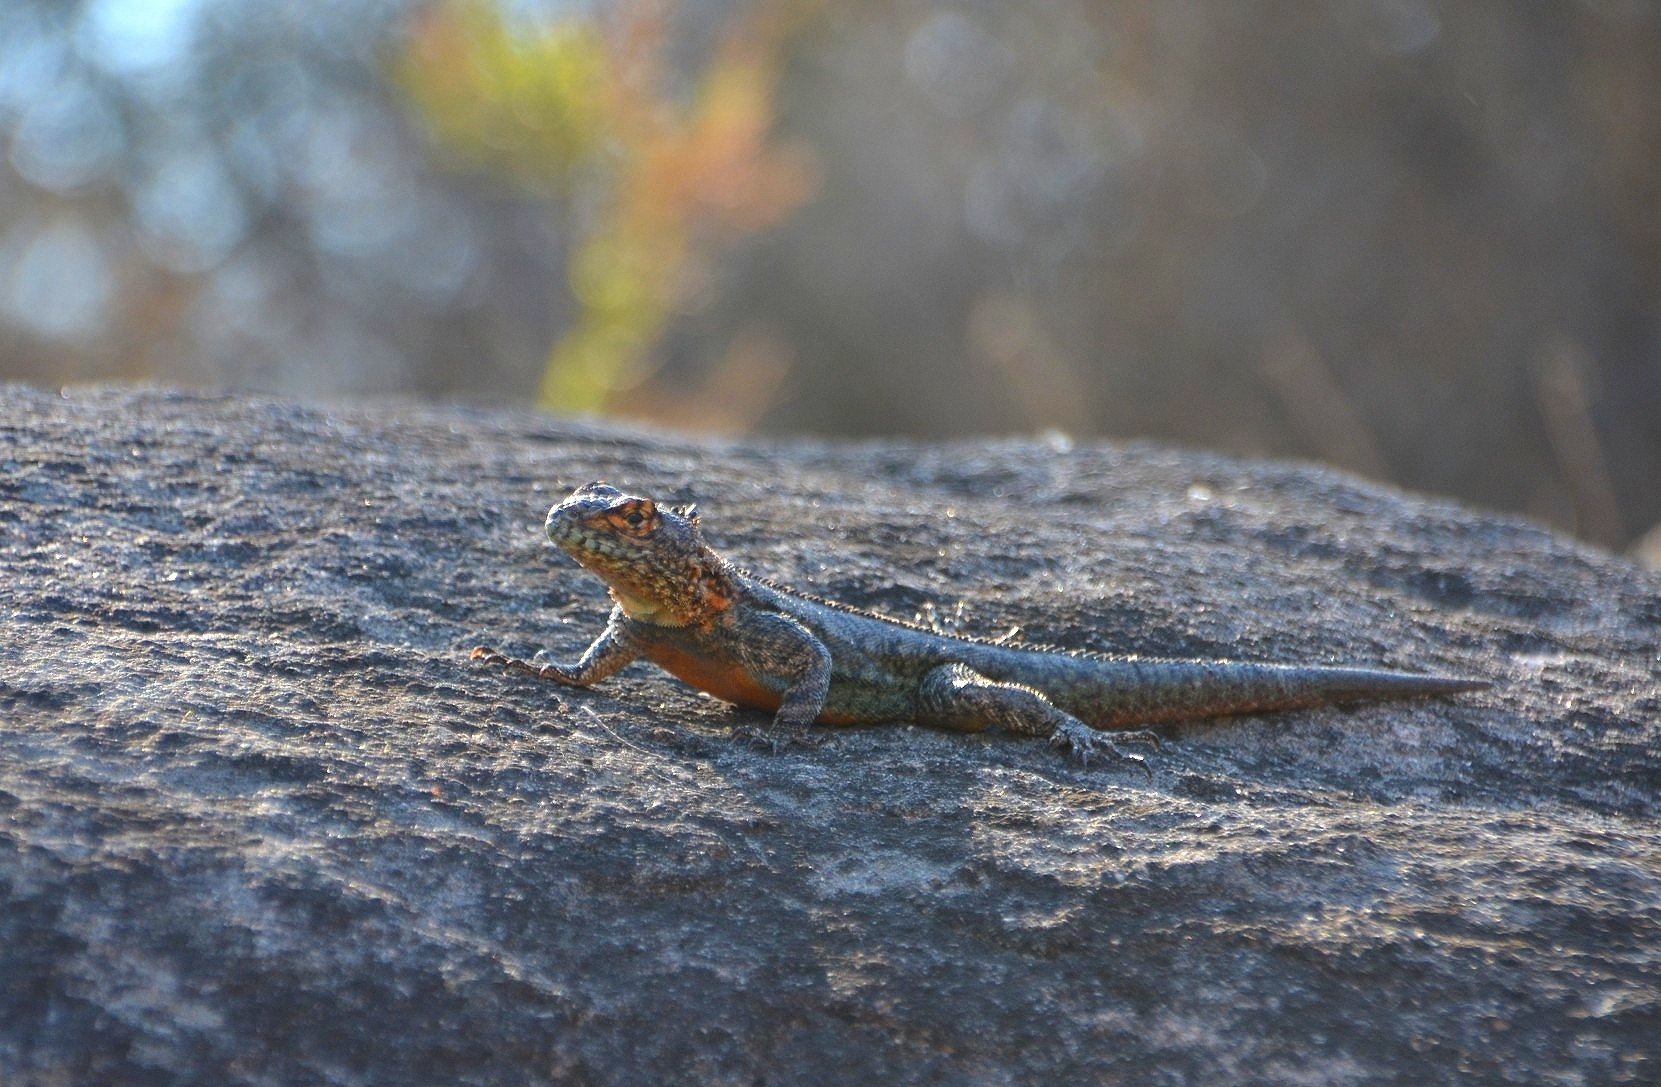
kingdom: Animalia
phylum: Chordata
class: Squamata
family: Tropiduridae
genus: Tropidurus
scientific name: Tropidurus spinulosus
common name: Spiny lava lizard
